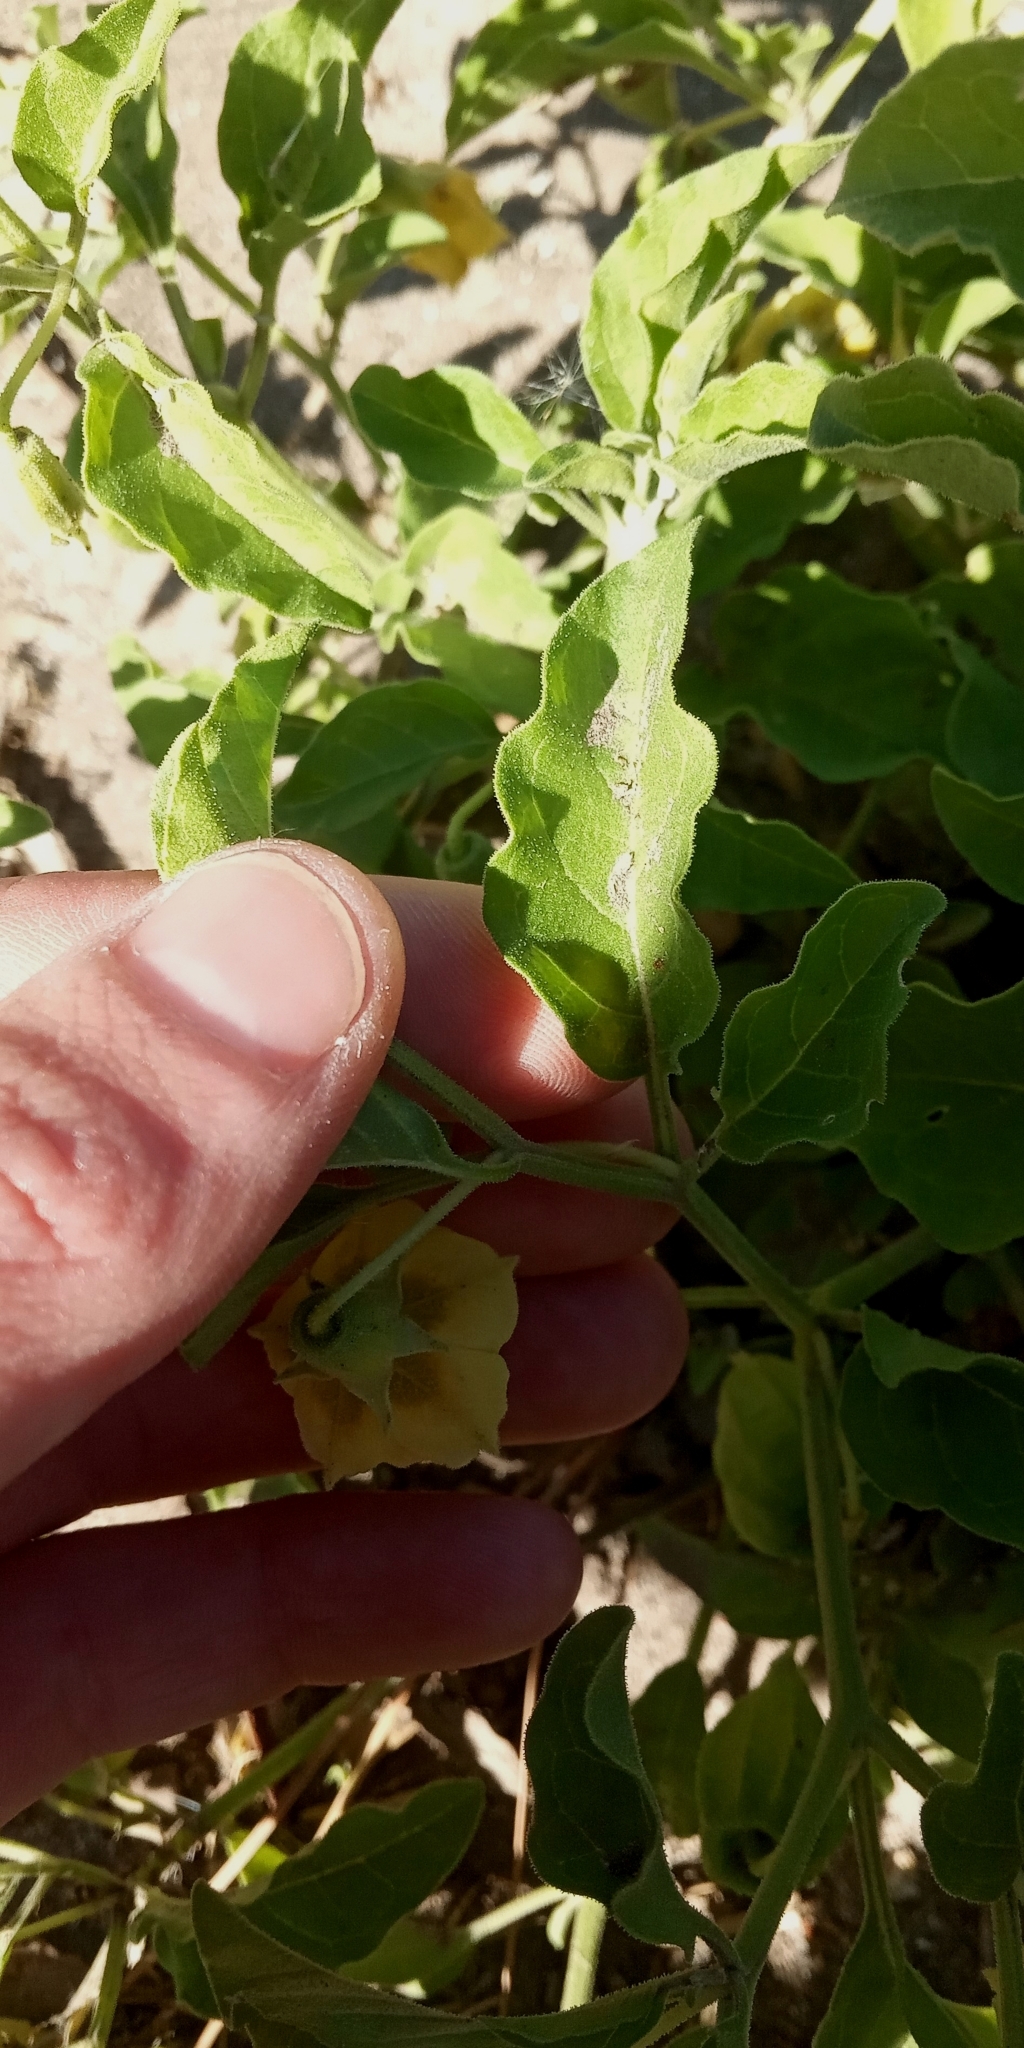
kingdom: Plantae
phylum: Tracheophyta
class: Magnoliopsida
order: Solanales
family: Solanaceae
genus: Physalis
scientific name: Physalis viscosa
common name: Stellate ground-cherry
